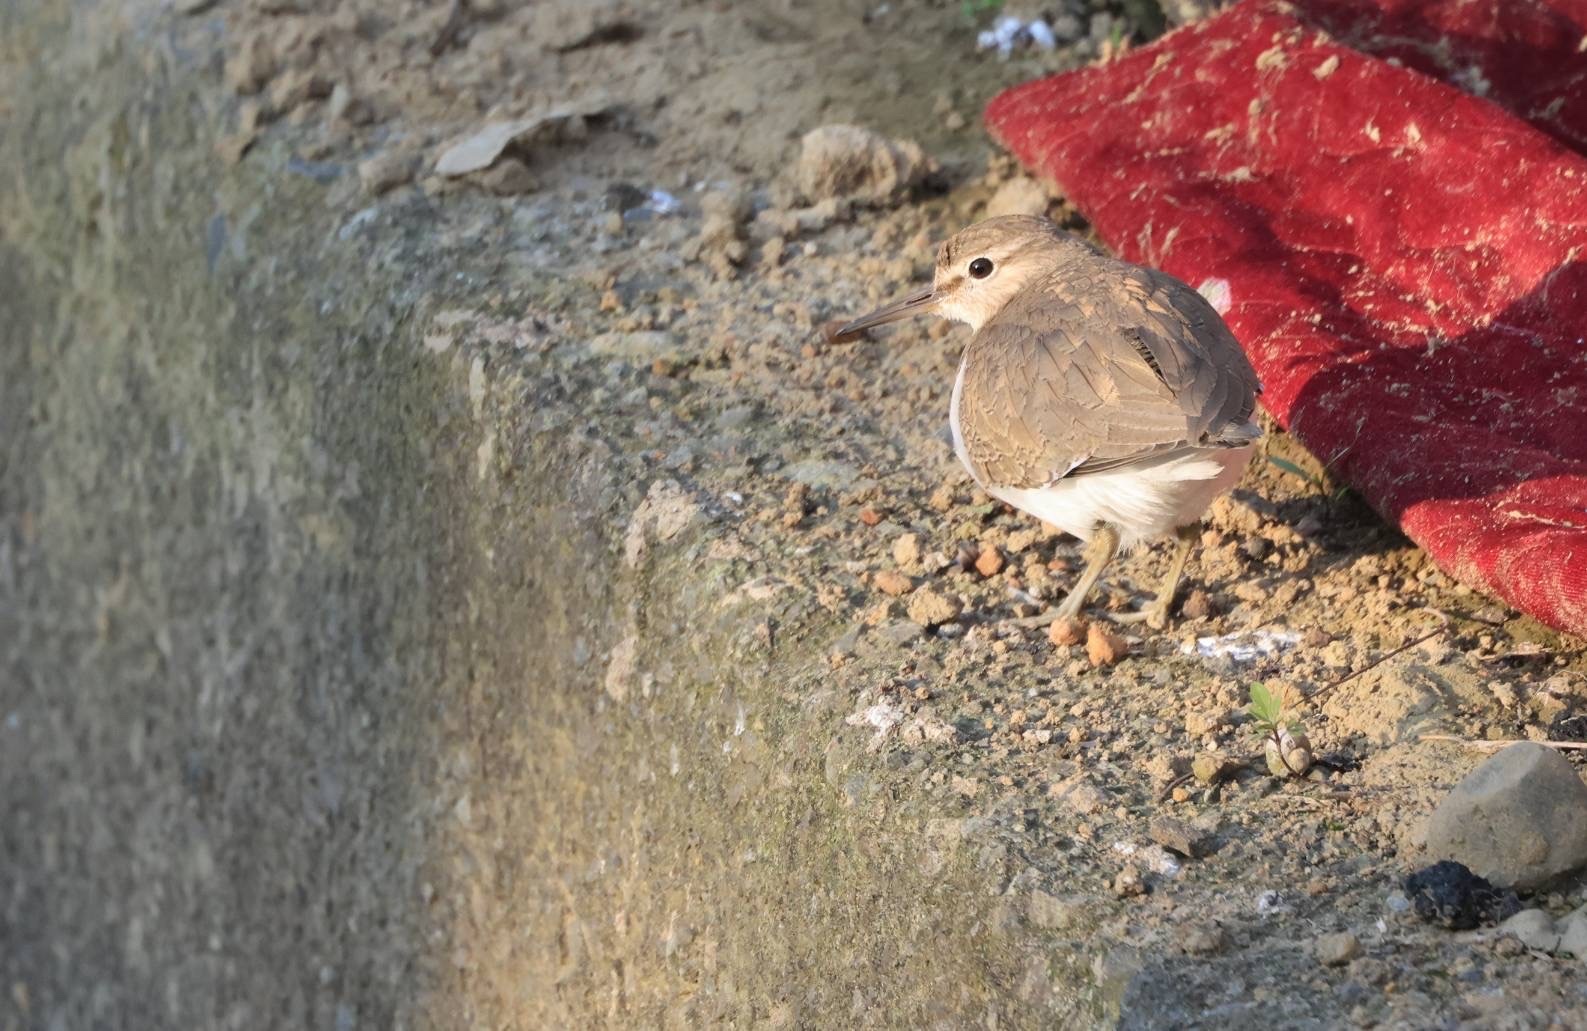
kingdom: Animalia
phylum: Chordata
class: Aves
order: Charadriiformes
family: Scolopacidae
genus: Actitis
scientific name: Actitis hypoleucos
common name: Common sandpiper
